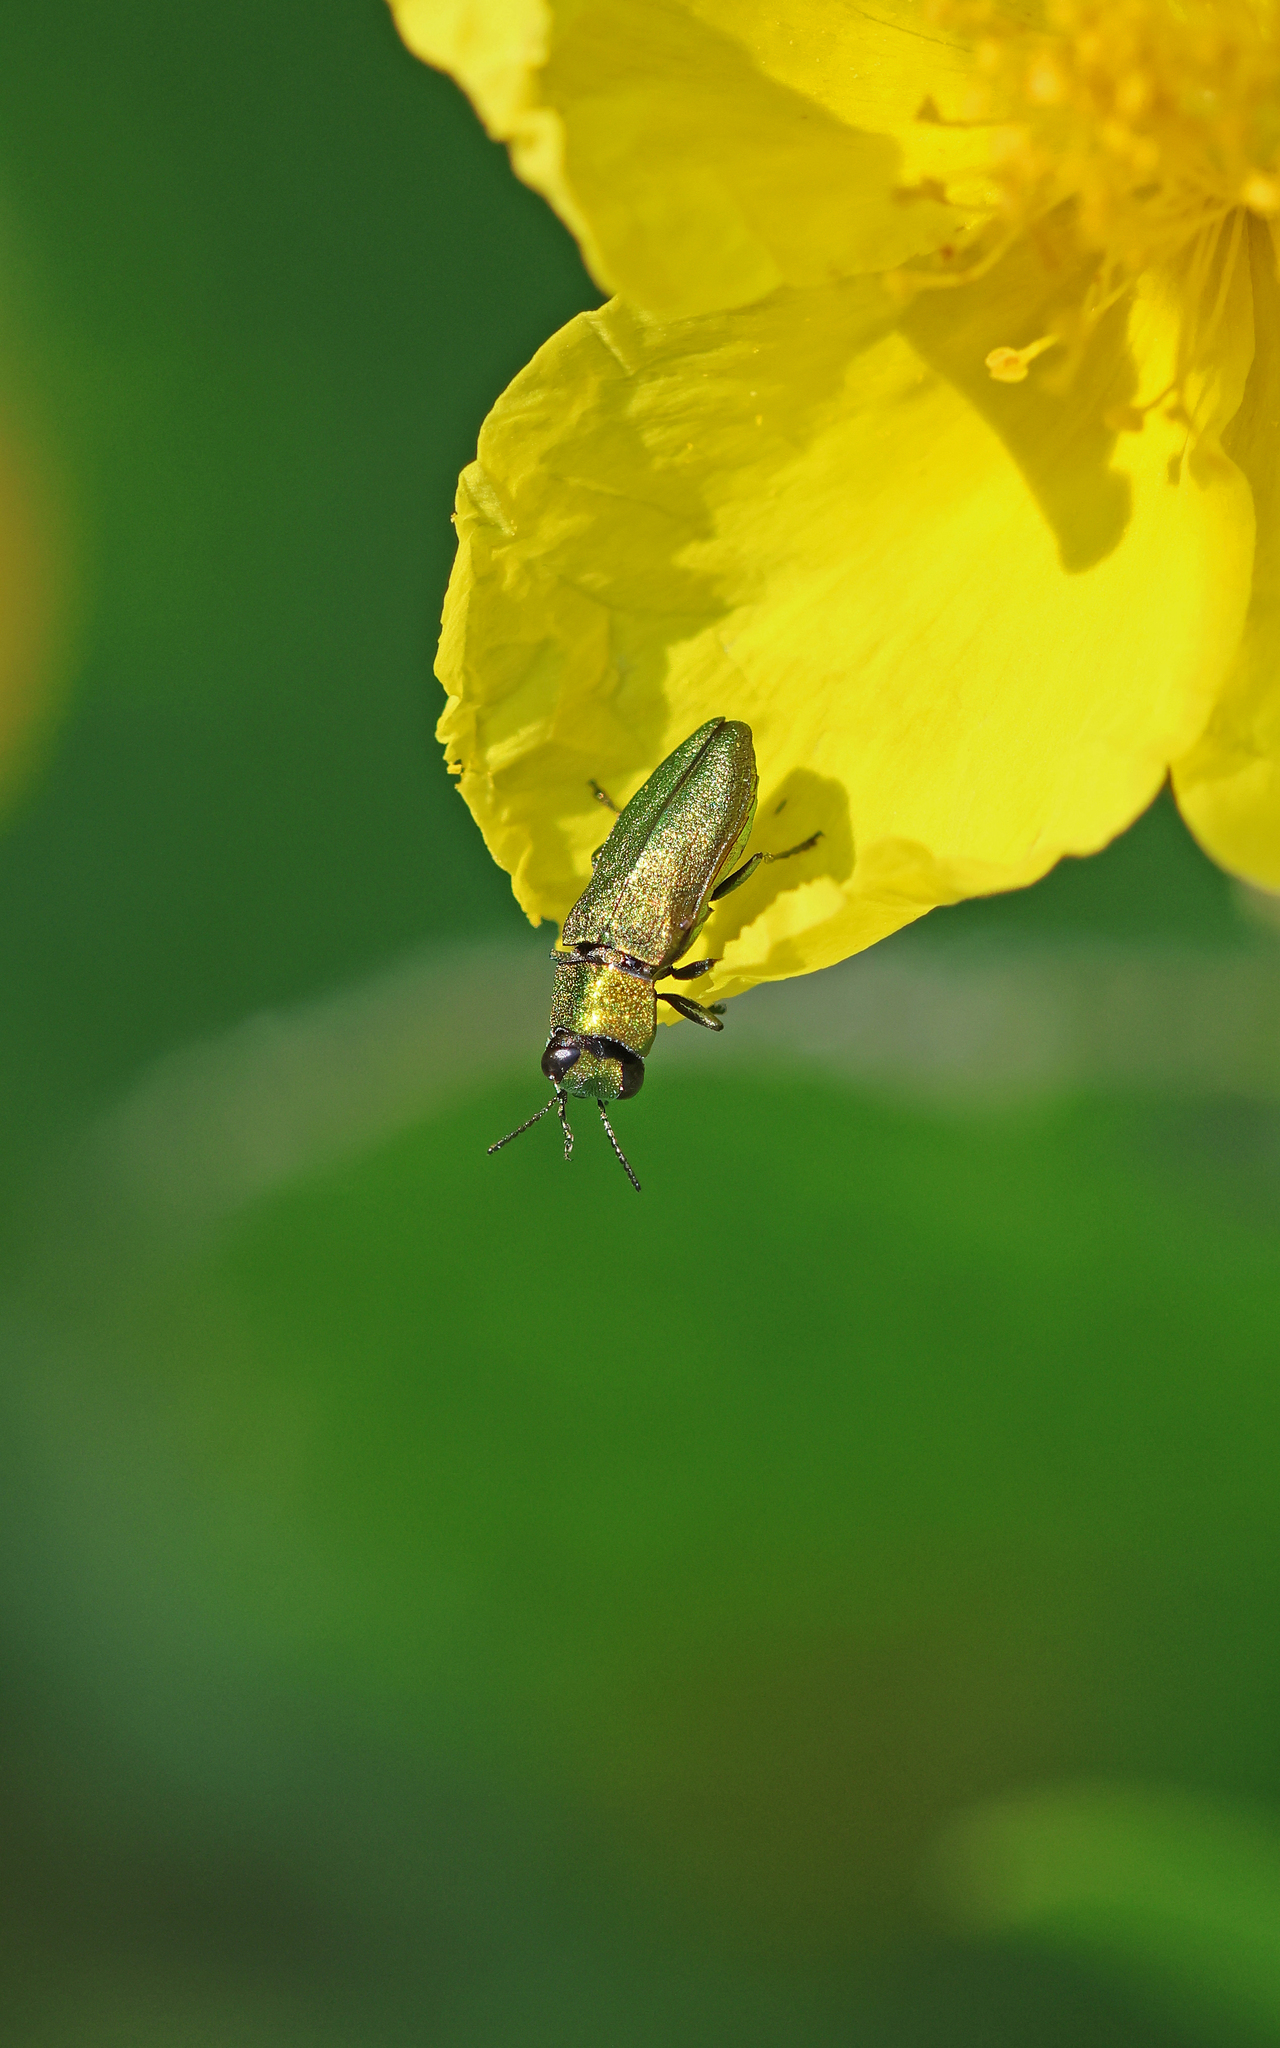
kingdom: Animalia
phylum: Arthropoda
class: Insecta
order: Coleoptera
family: Buprestidae
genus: Anthaxia
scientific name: Anthaxia nitidula
